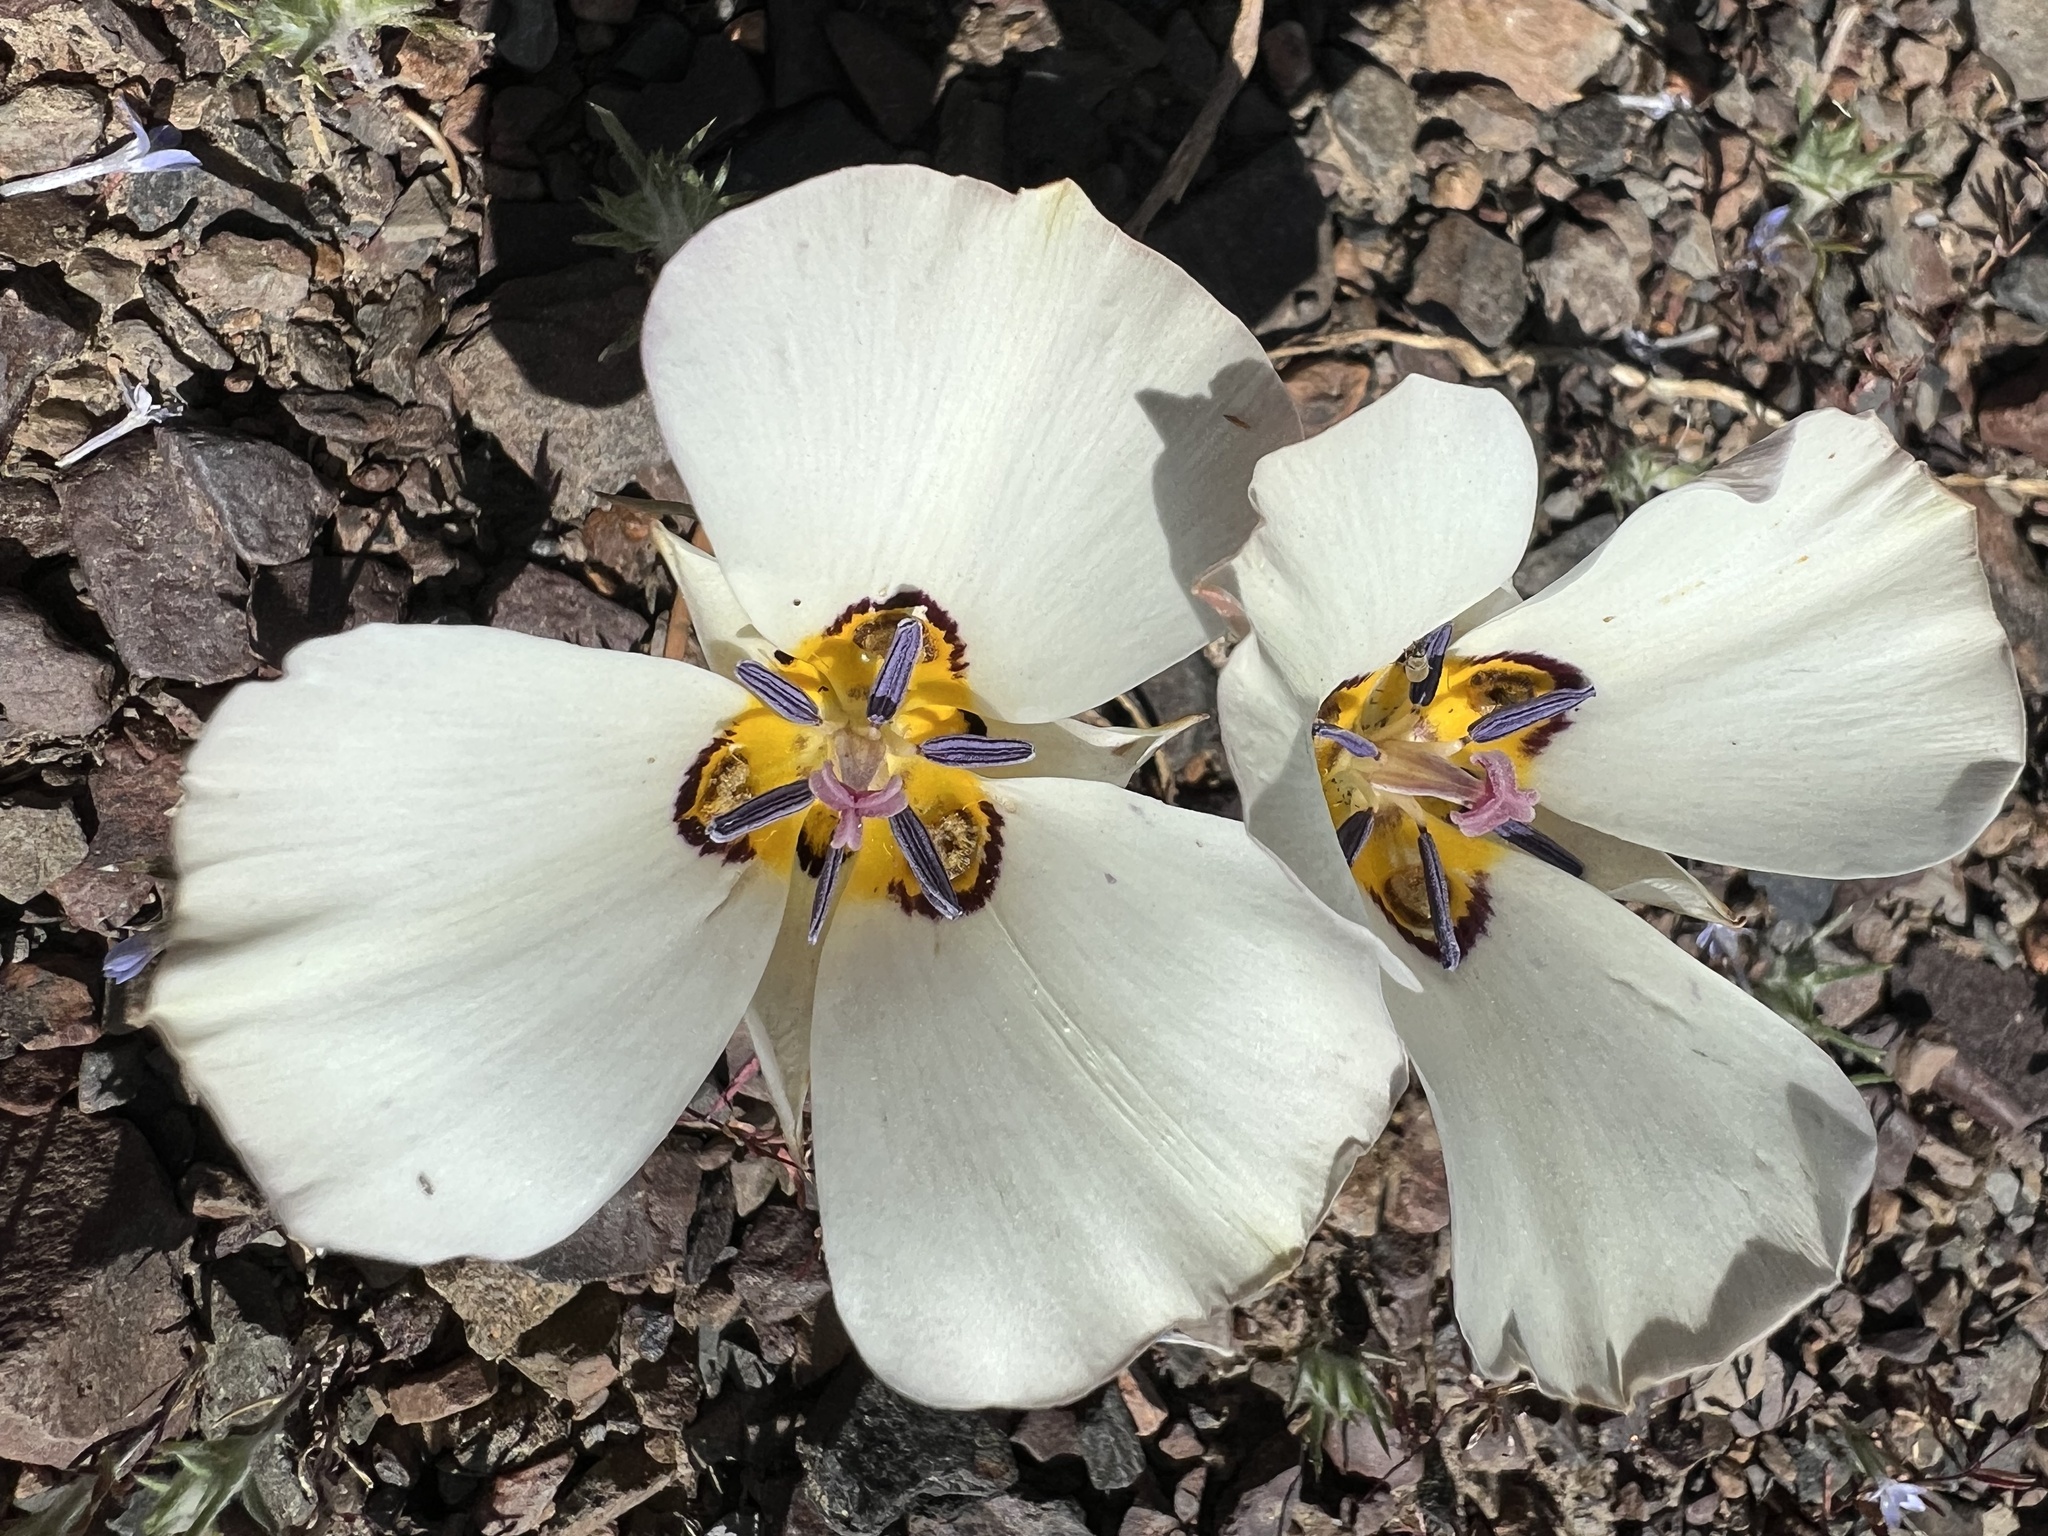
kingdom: Plantae
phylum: Tracheophyta
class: Liliopsida
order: Liliales
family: Liliaceae
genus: Calochortus
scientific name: Calochortus bruneaunis
